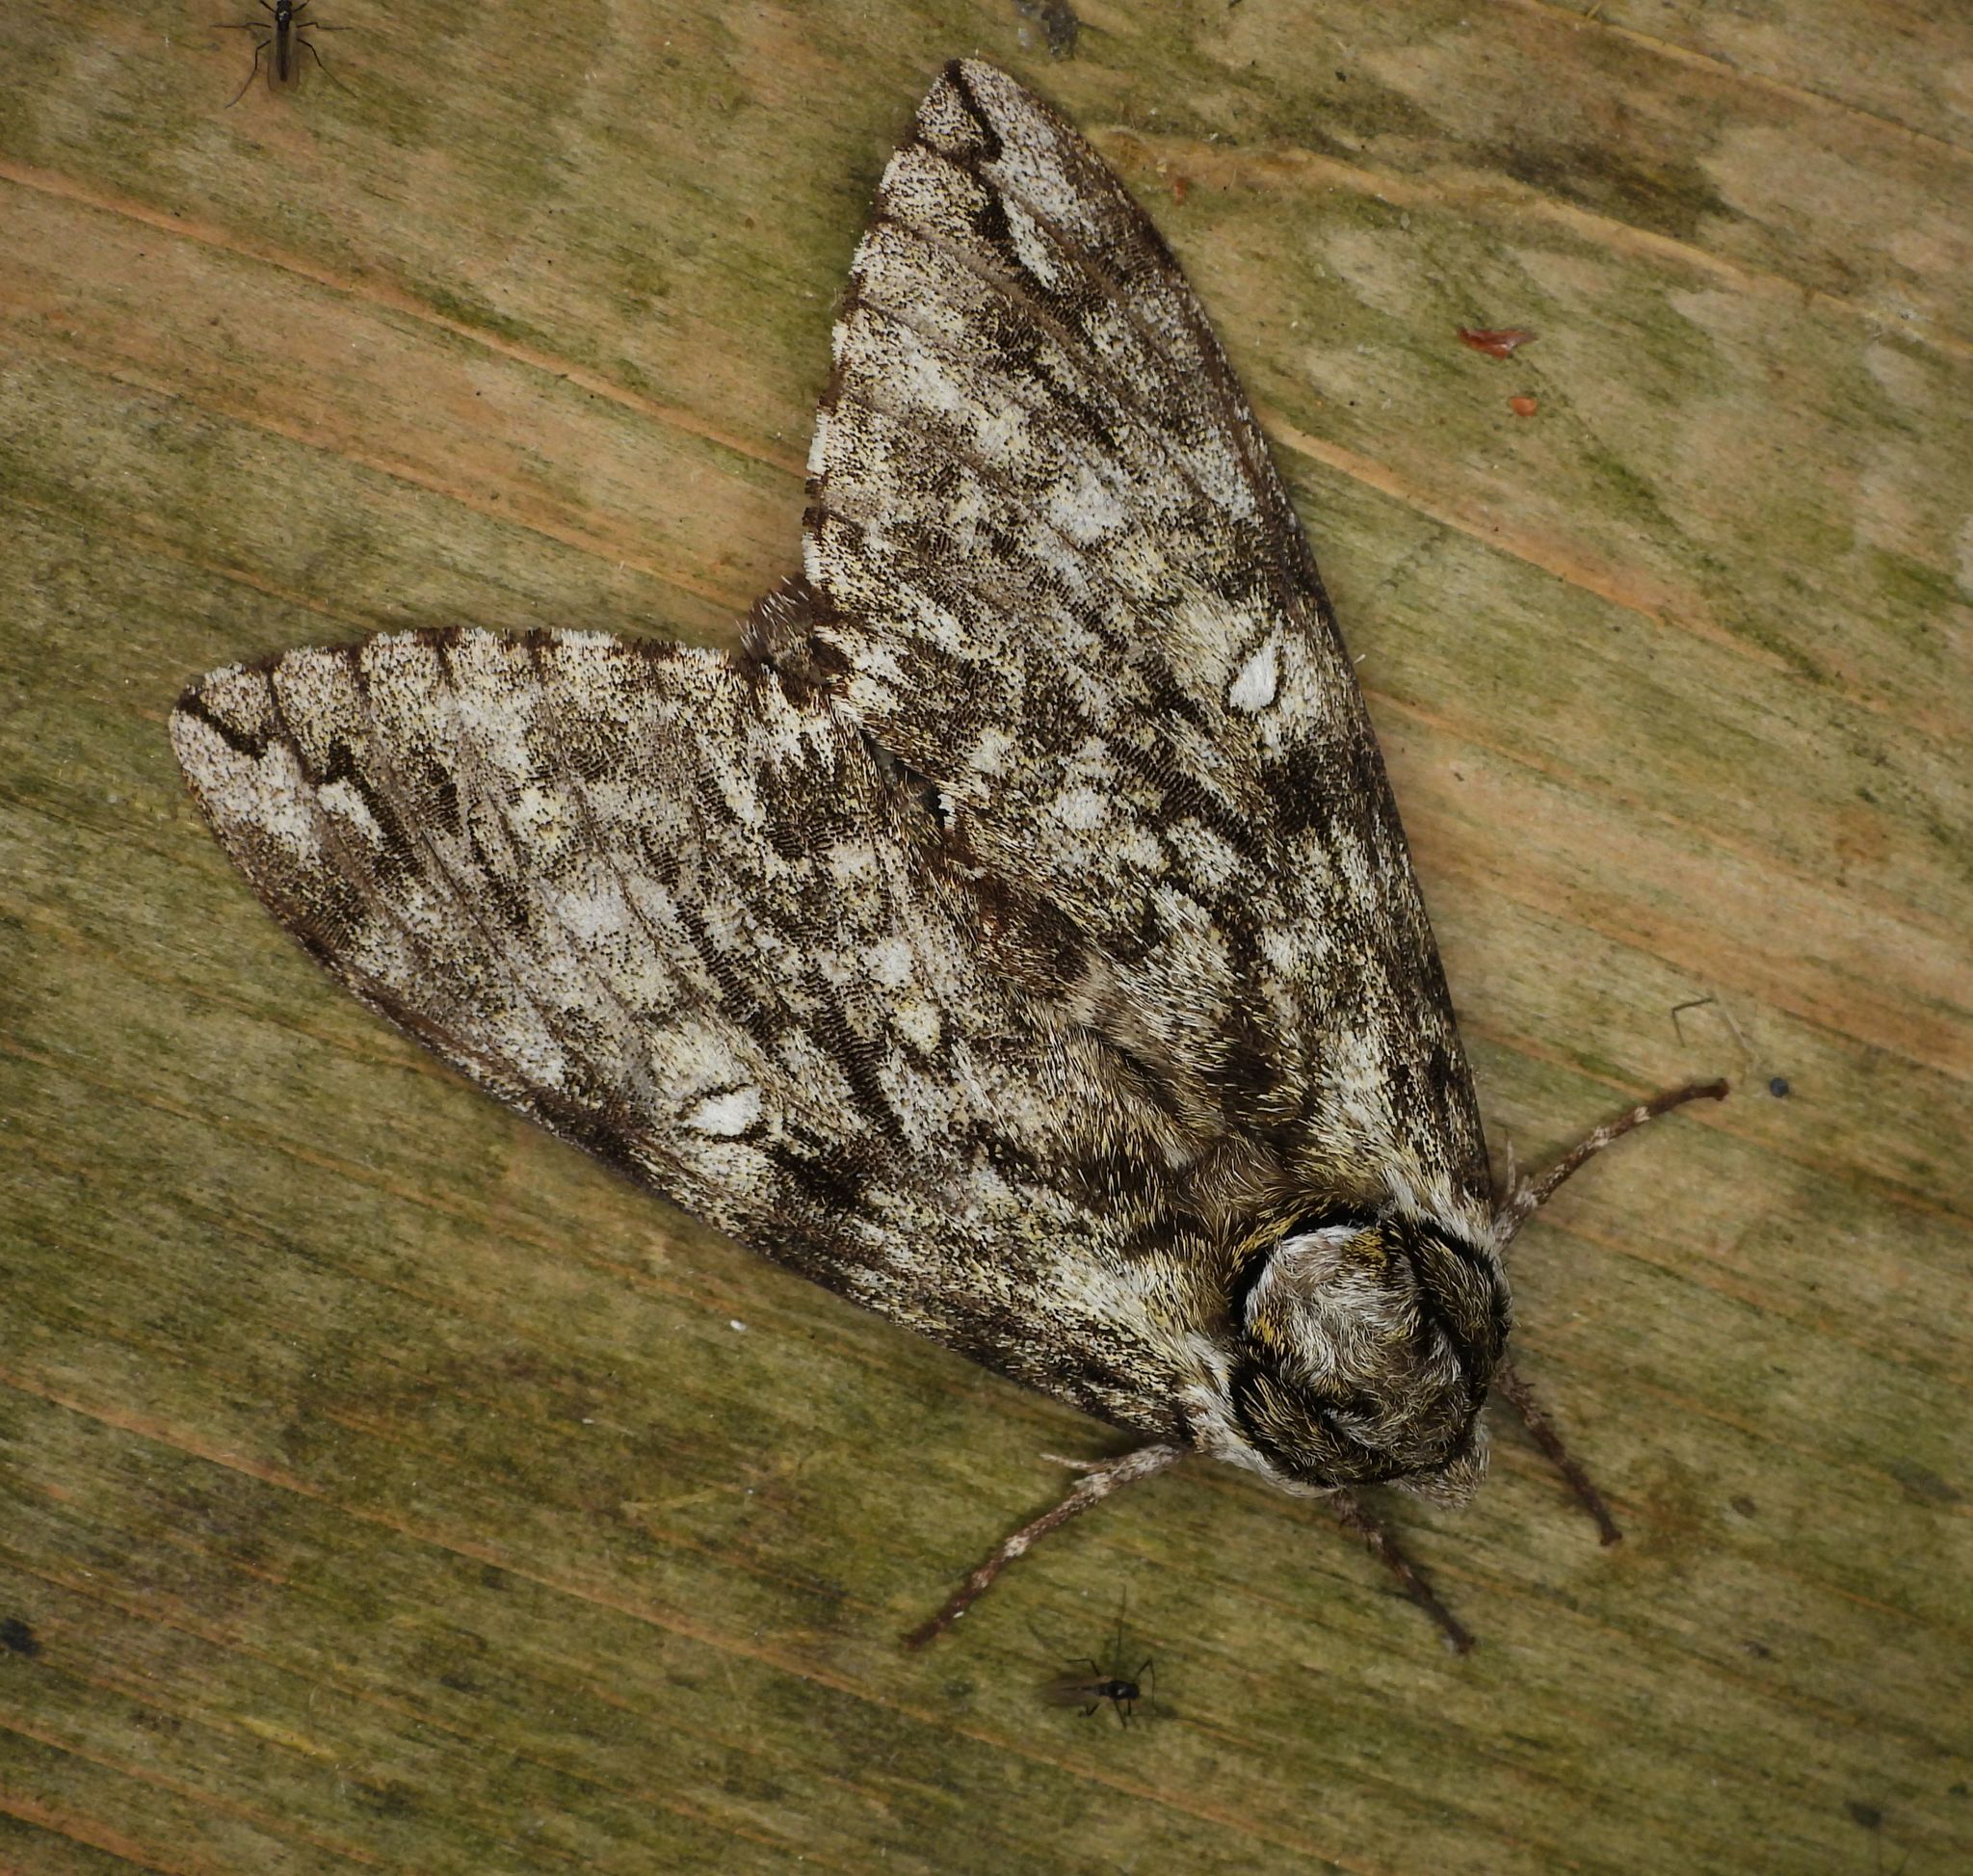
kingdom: Animalia
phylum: Arthropoda
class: Insecta
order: Lepidoptera
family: Sphingidae
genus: Ceratomia
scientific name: Ceratomia undulosa
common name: Waved sphinx
